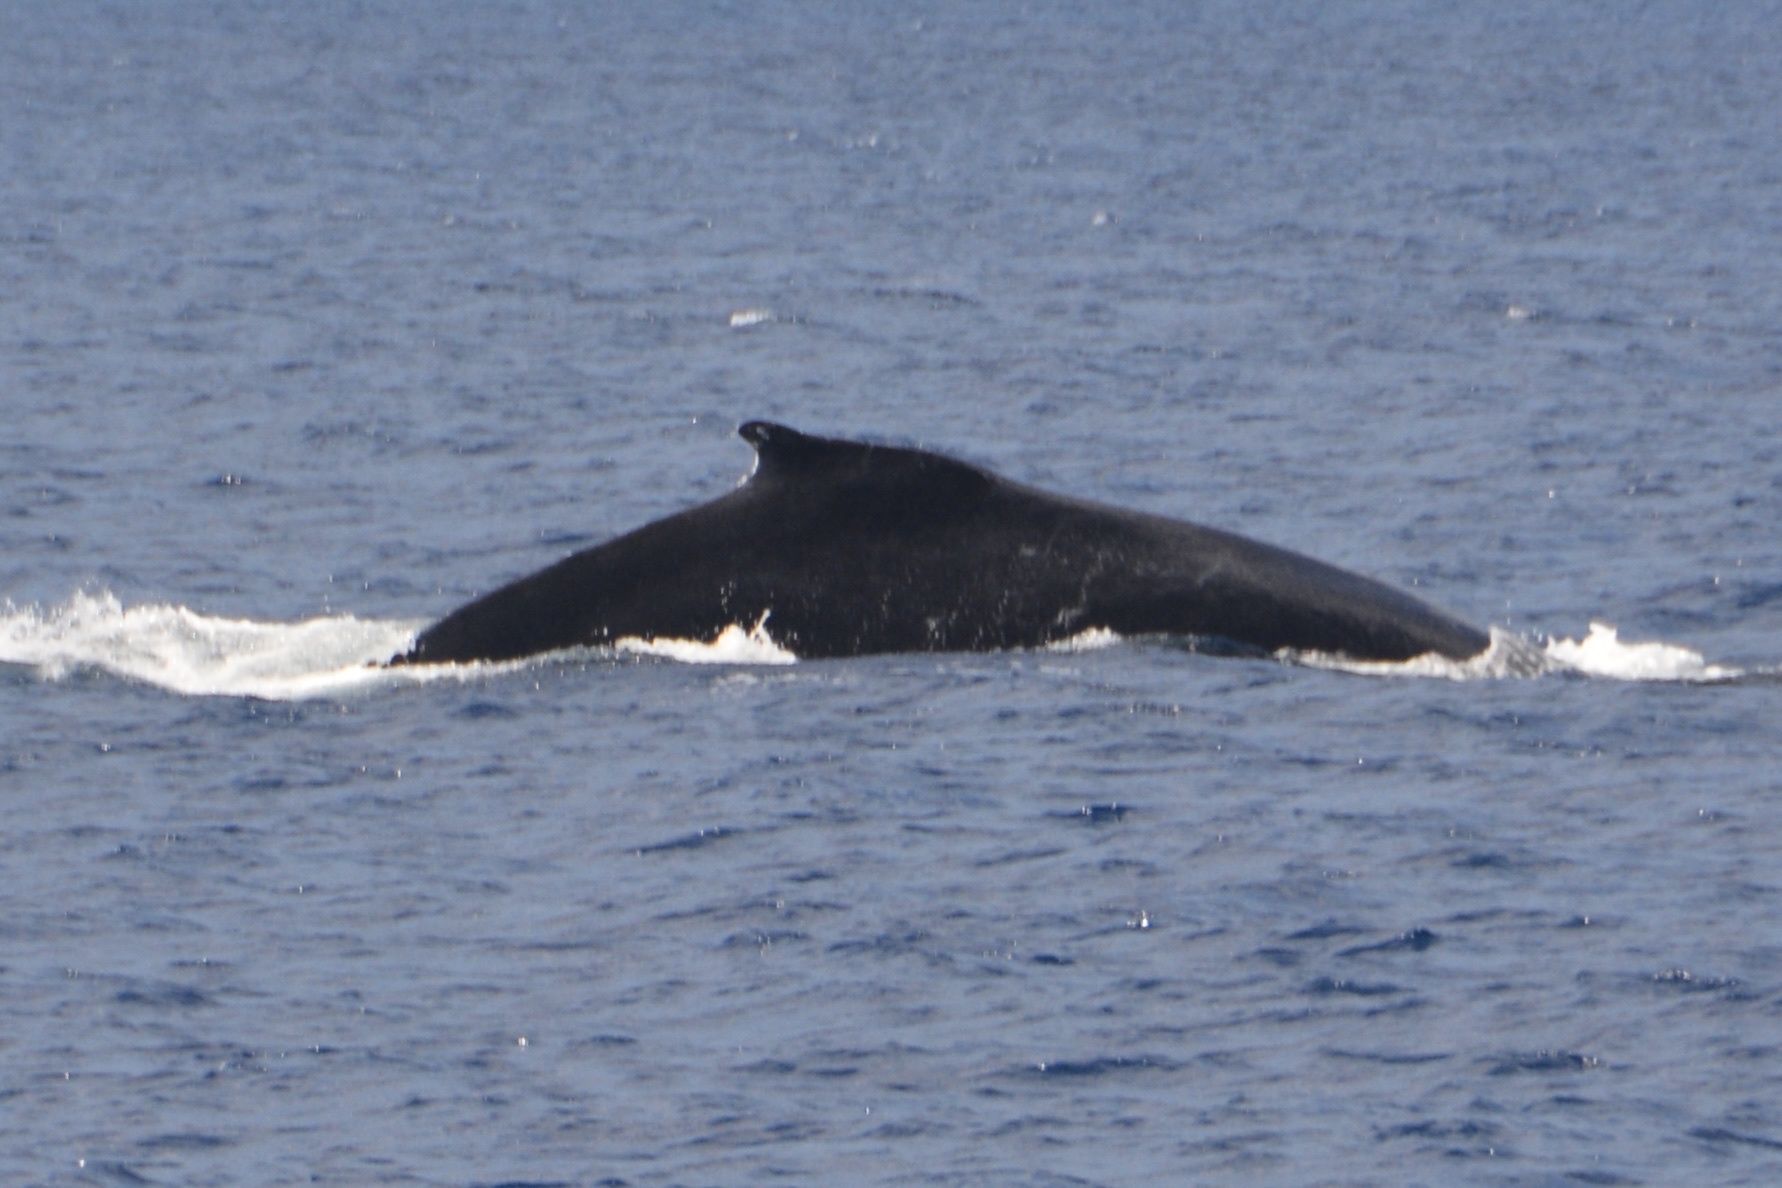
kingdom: Animalia
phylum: Chordata
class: Mammalia
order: Cetacea
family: Balaenopteridae
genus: Megaptera
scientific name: Megaptera novaeangliae
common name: Humpback whale
